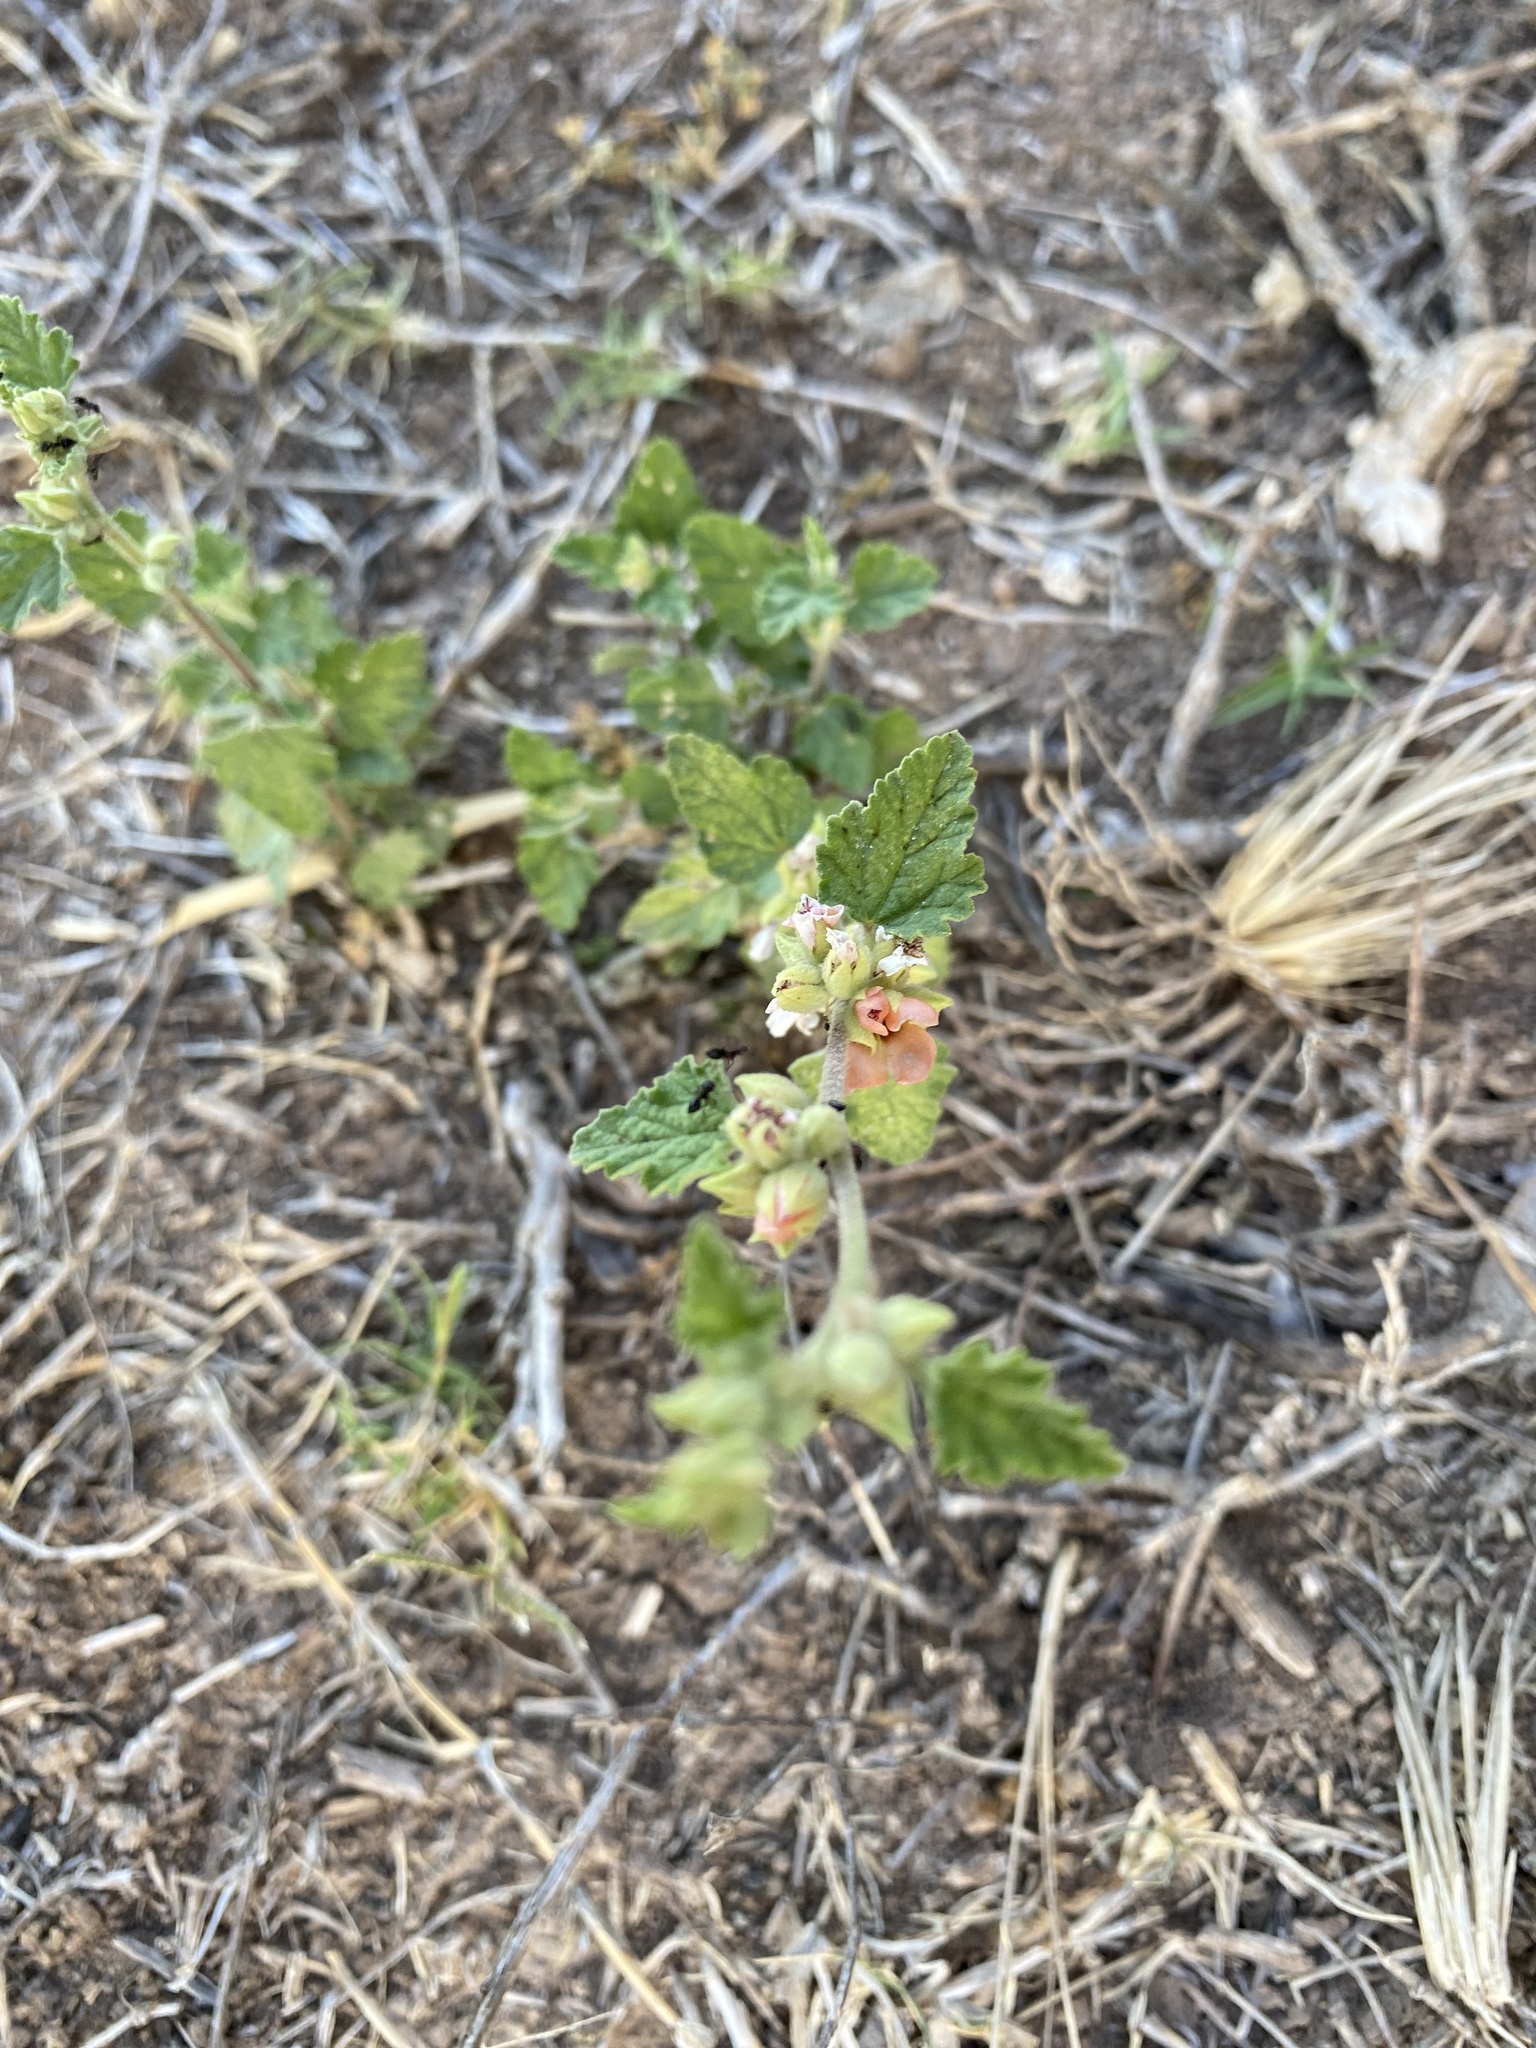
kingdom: Plantae
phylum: Tracheophyta
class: Magnoliopsida
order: Malvales
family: Malvaceae
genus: Sphaeralcea
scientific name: Sphaeralcea bonariensis
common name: Latin globemallow
